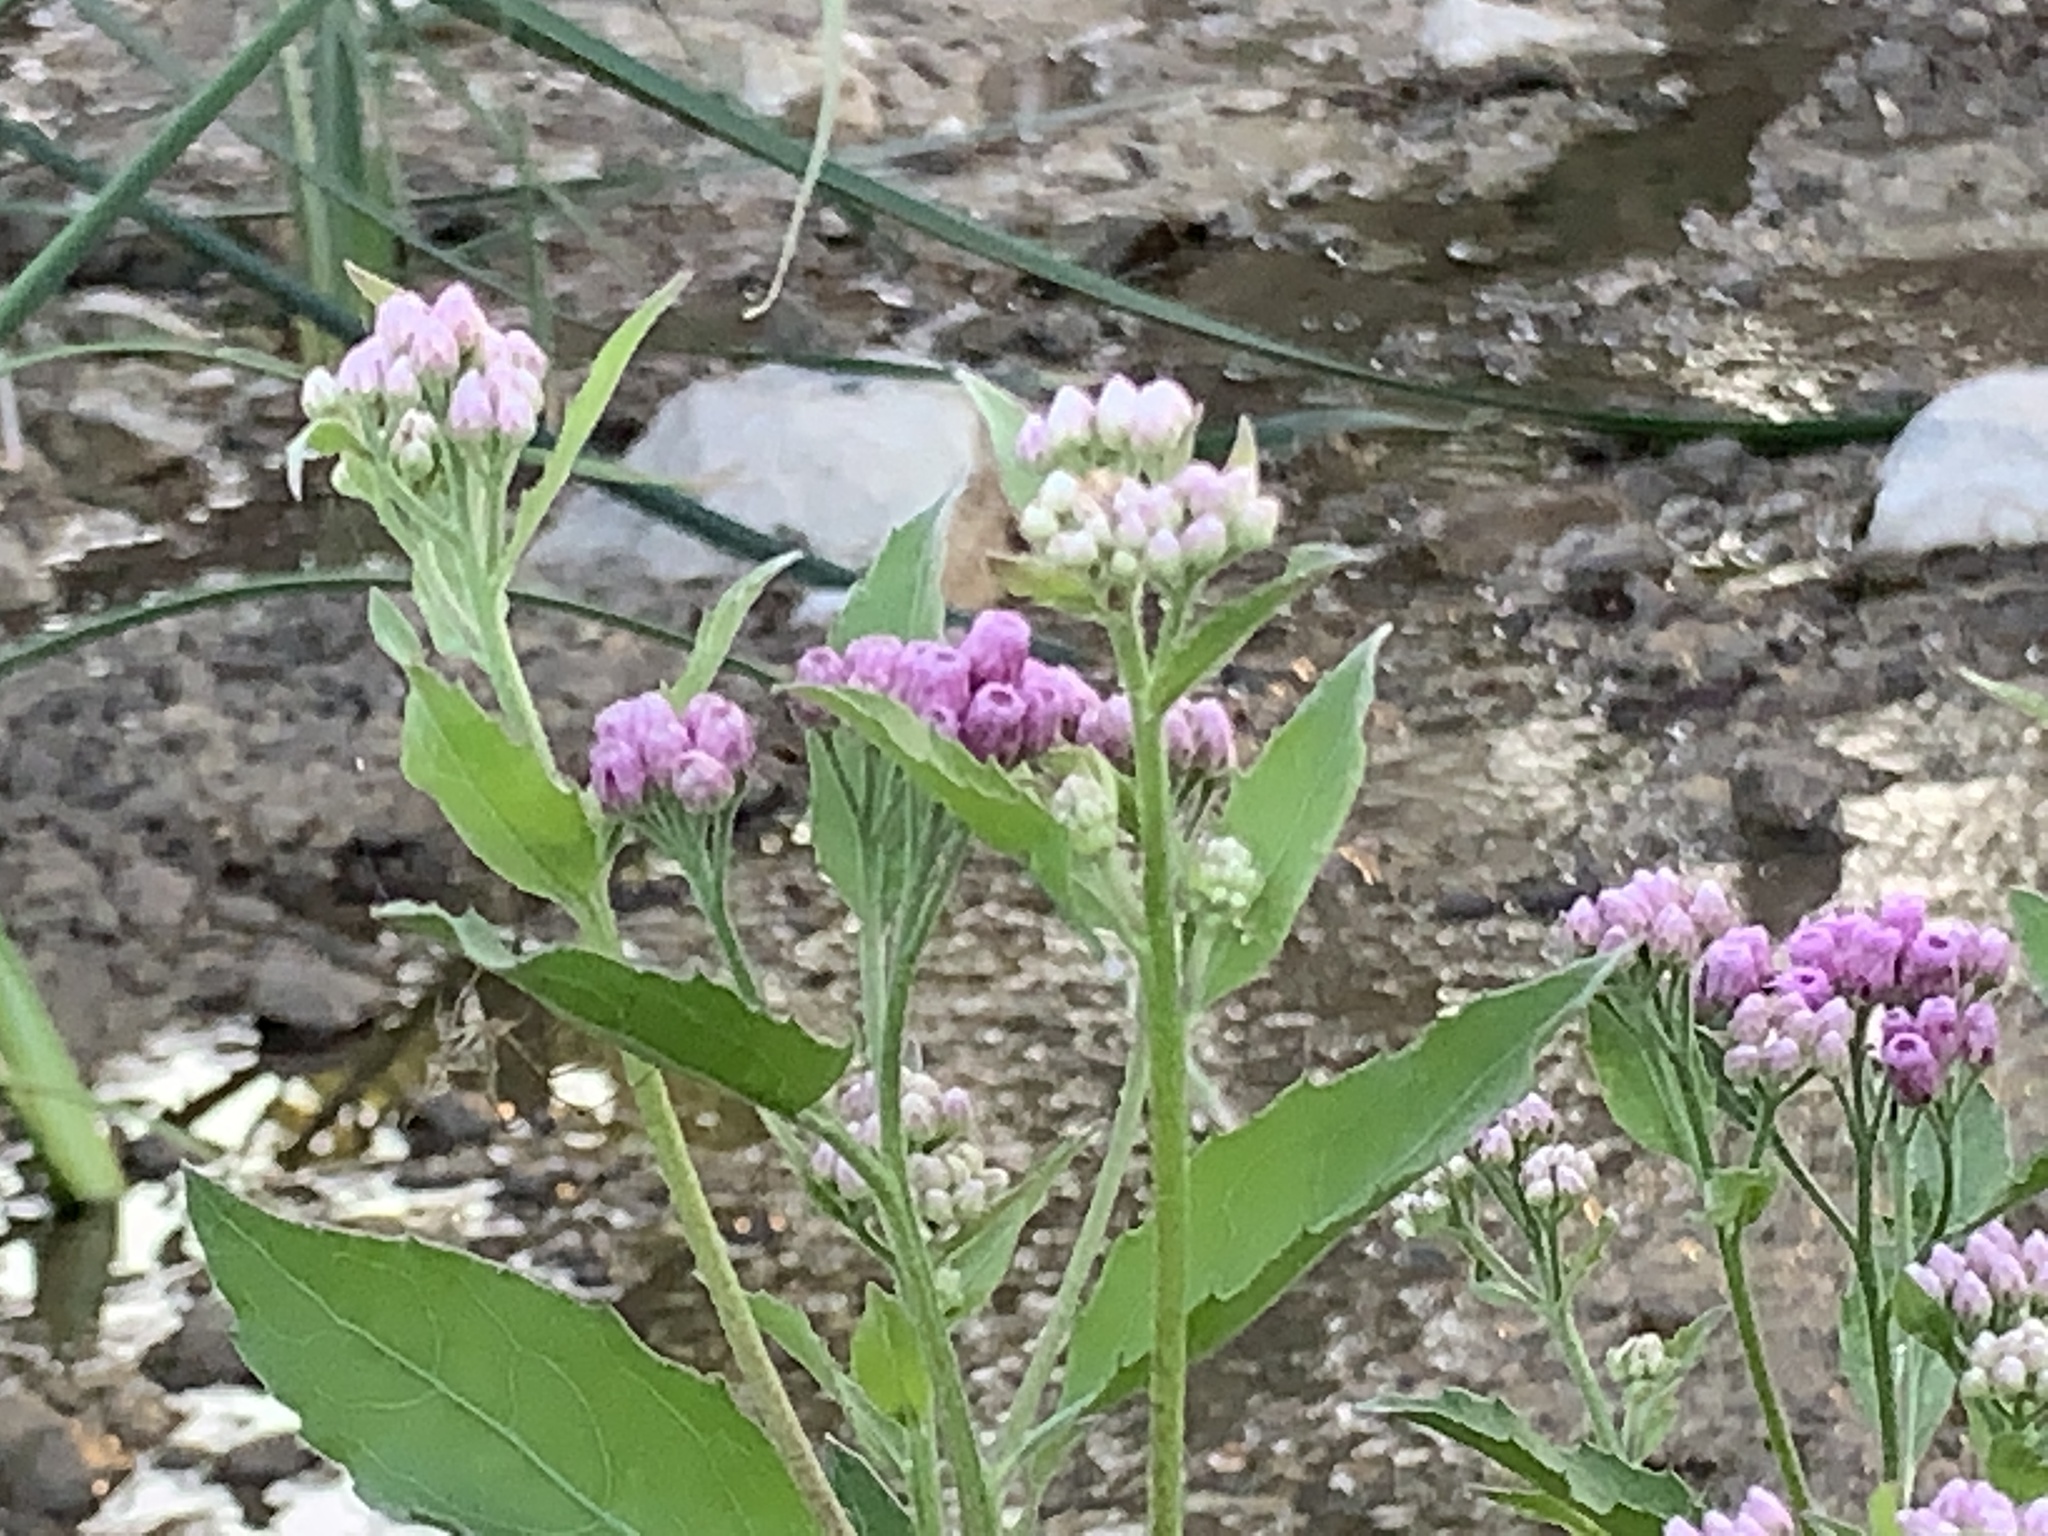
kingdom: Plantae
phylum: Tracheophyta
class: Magnoliopsida
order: Asterales
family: Asteraceae
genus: Pluchea
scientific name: Pluchea odorata
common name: Saltmarsh fleabane
